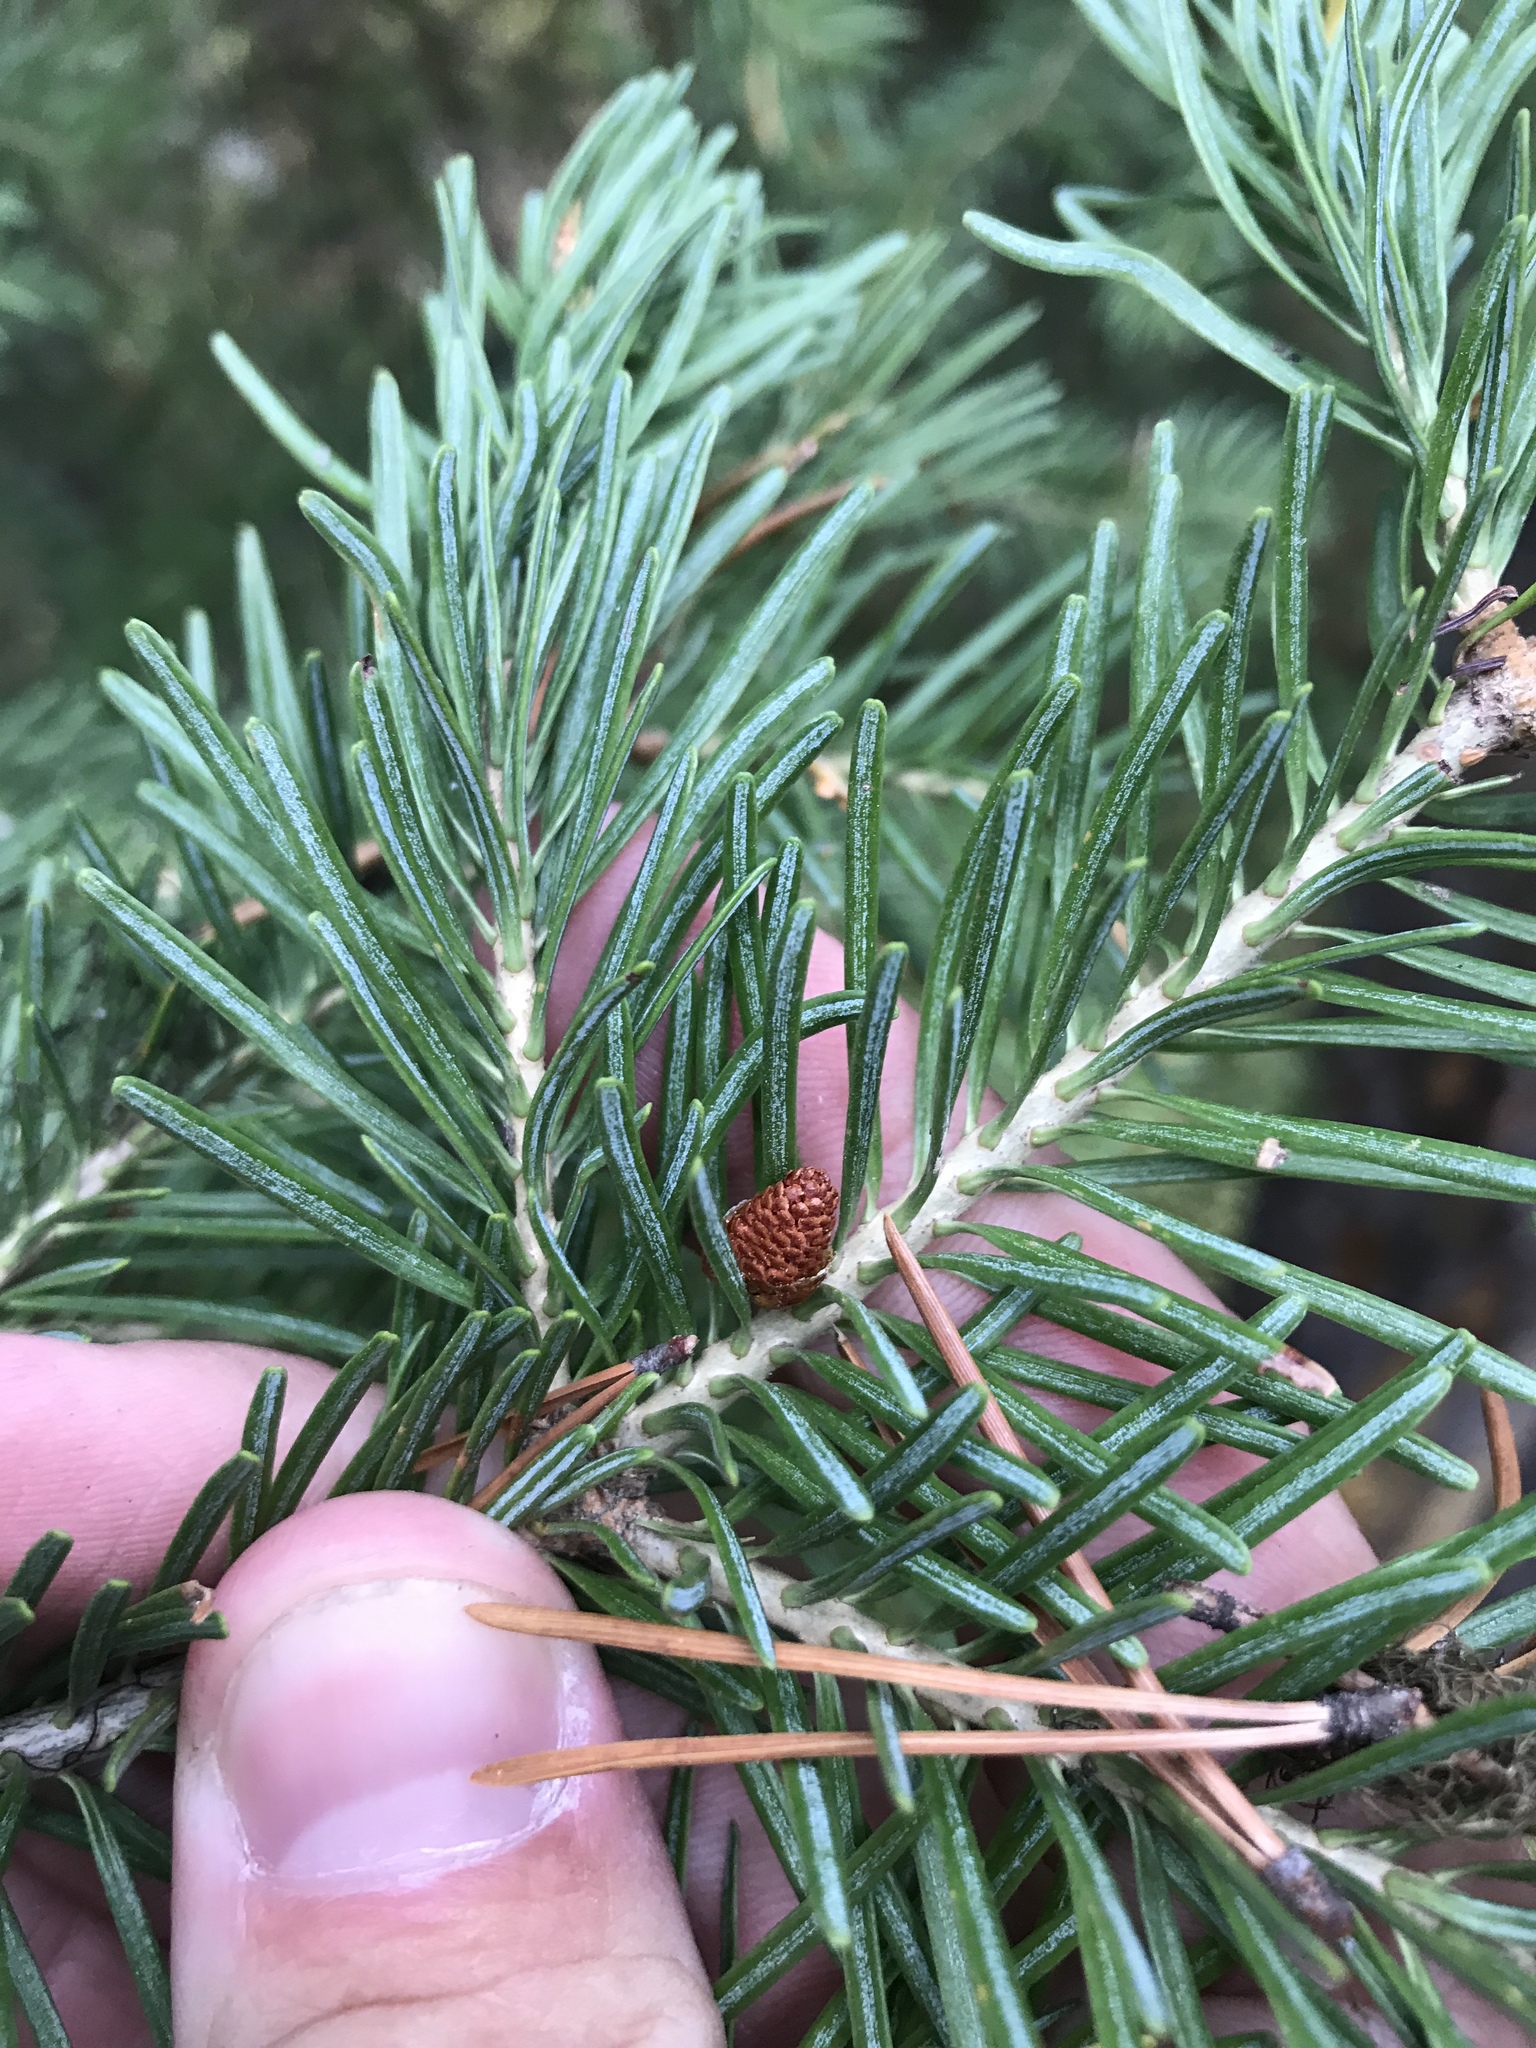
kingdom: Plantae
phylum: Tracheophyta
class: Pinopsida
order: Pinales
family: Pinaceae
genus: Abies
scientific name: Abies lasiocarpa
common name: Subalpine fir
